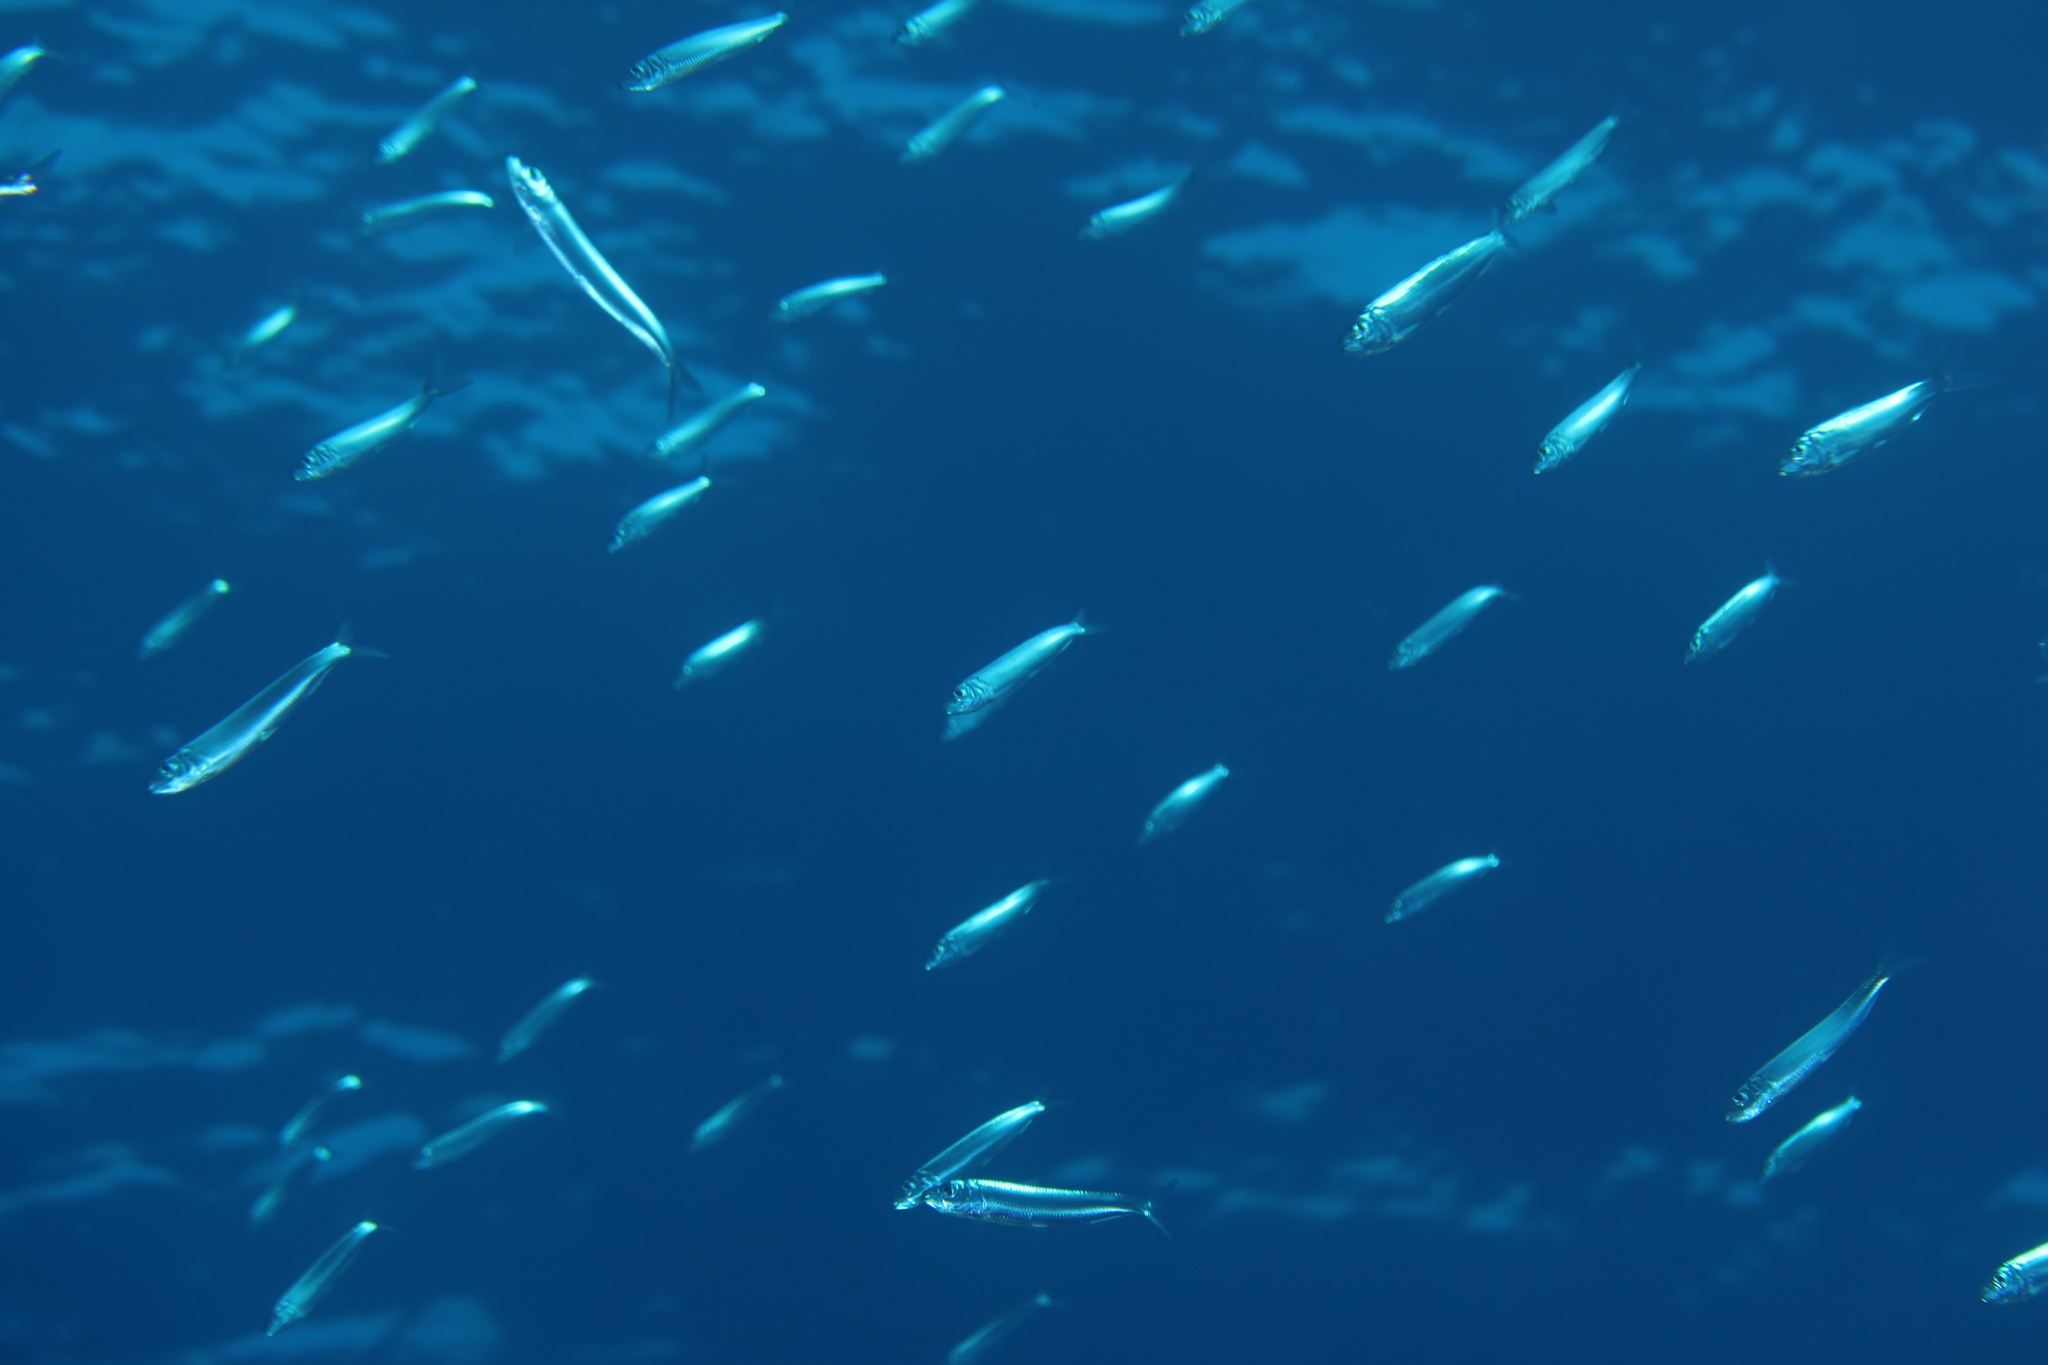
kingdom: Animalia
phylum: Chordata
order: Clupeiformes
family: Clupeidae
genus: Sardina
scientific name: Sardina pilchardus
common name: Pilchard
